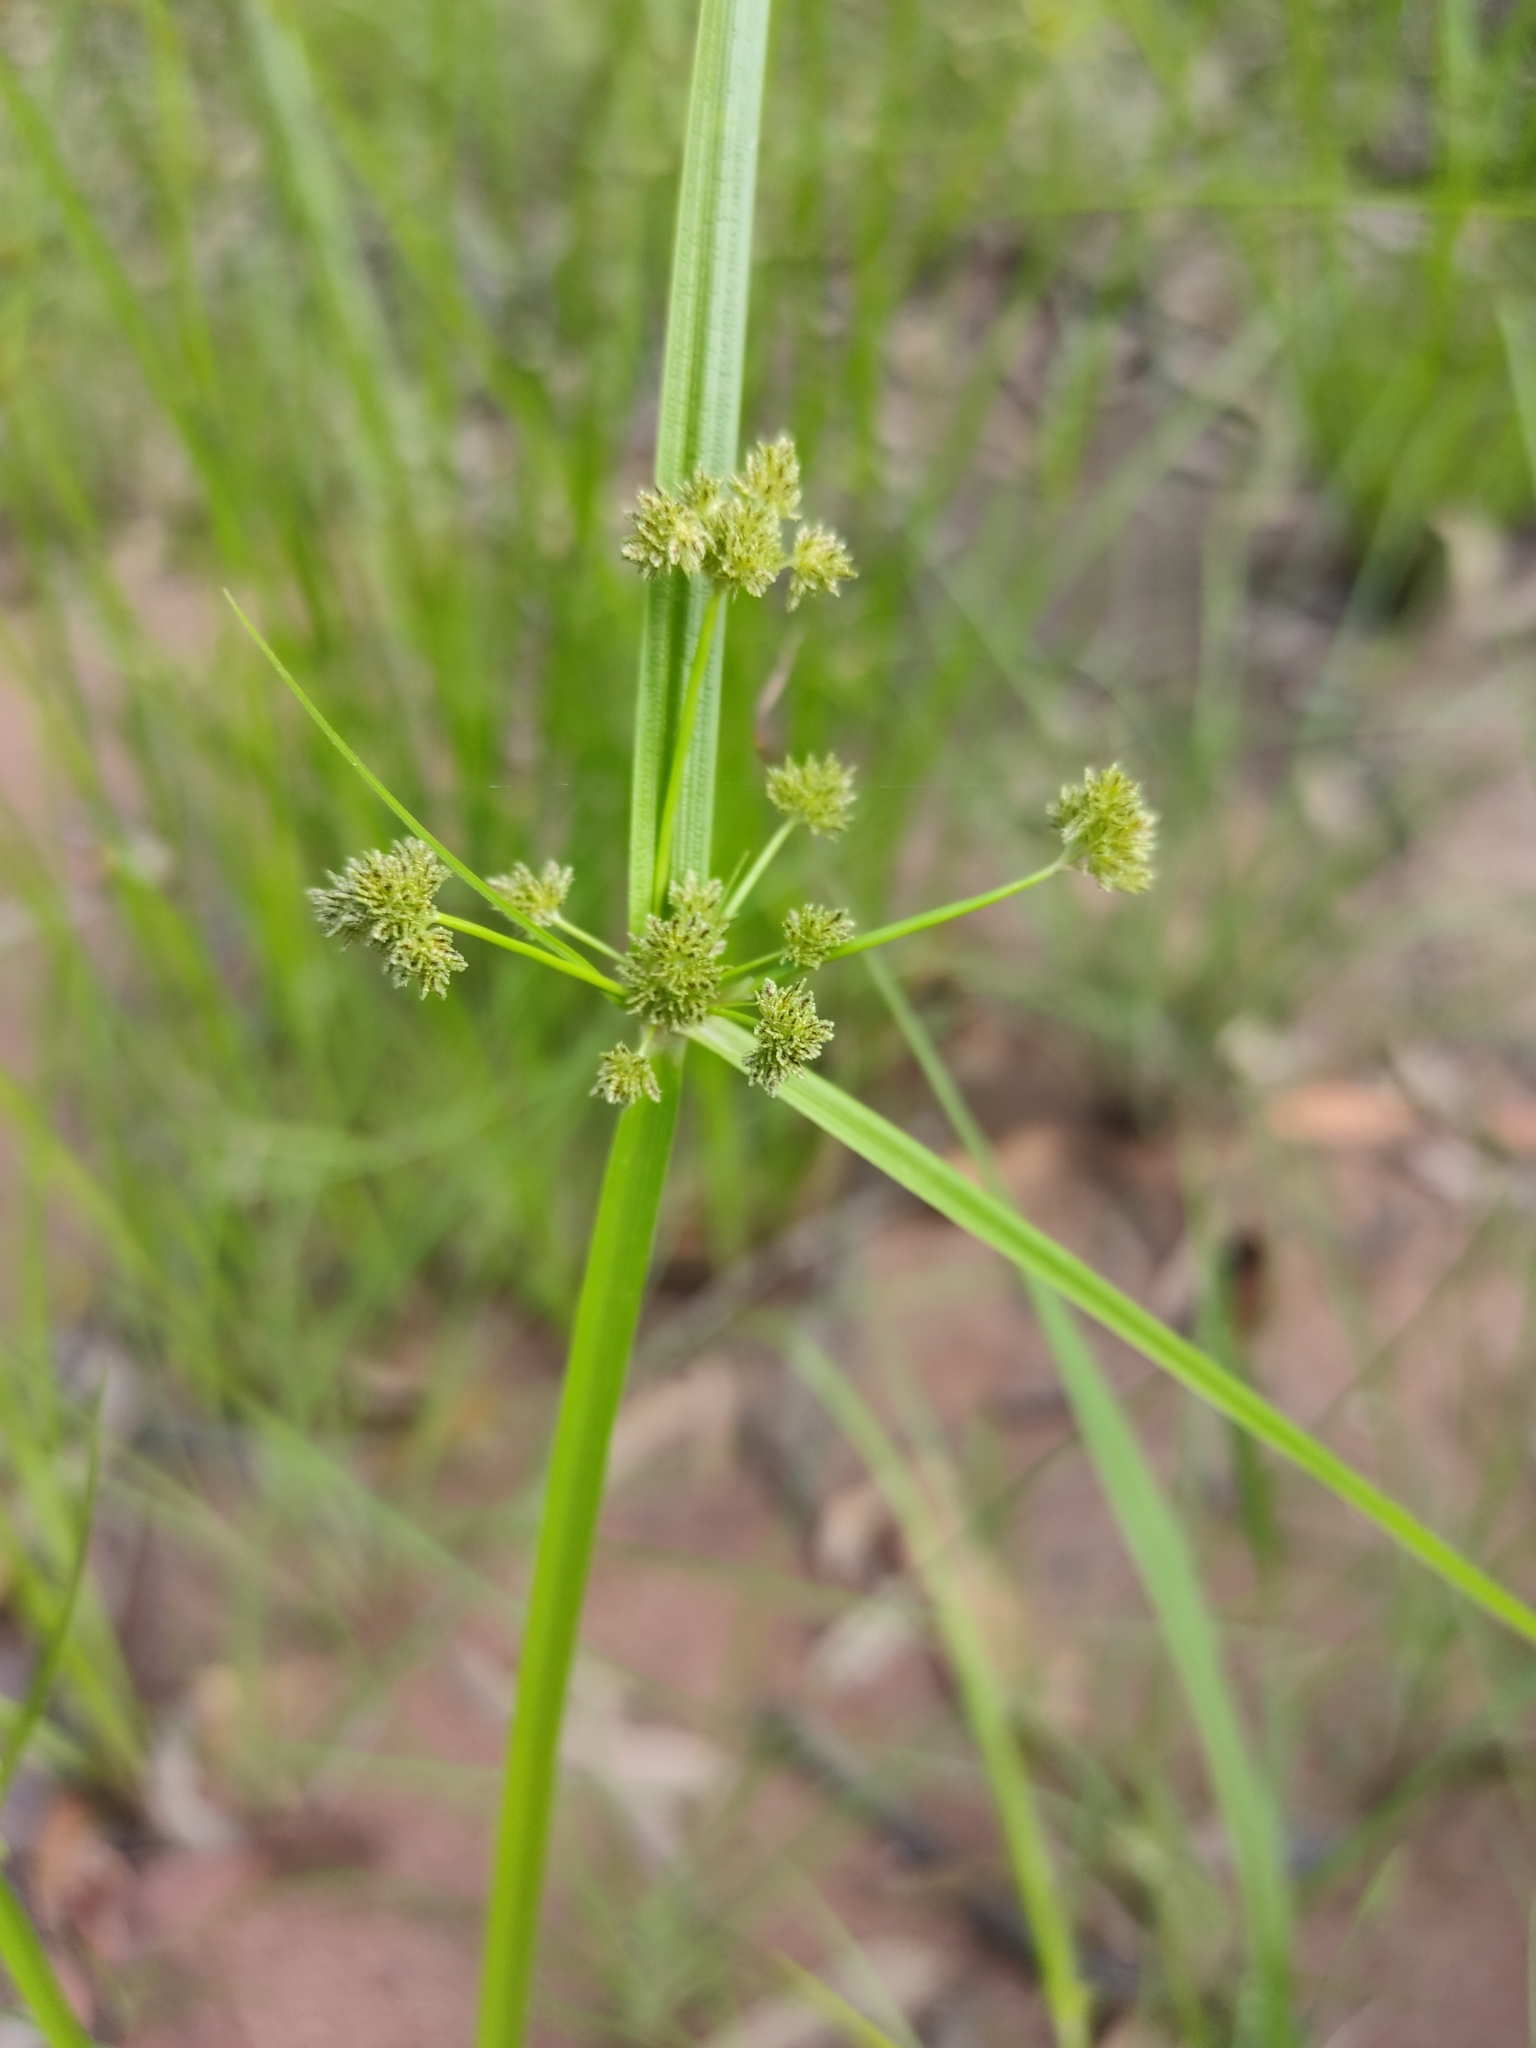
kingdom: Plantae
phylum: Tracheophyta
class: Liliopsida
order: Poales
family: Cyperaceae
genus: Cyperus
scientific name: Cyperus difformis
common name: Variable flatsedge
